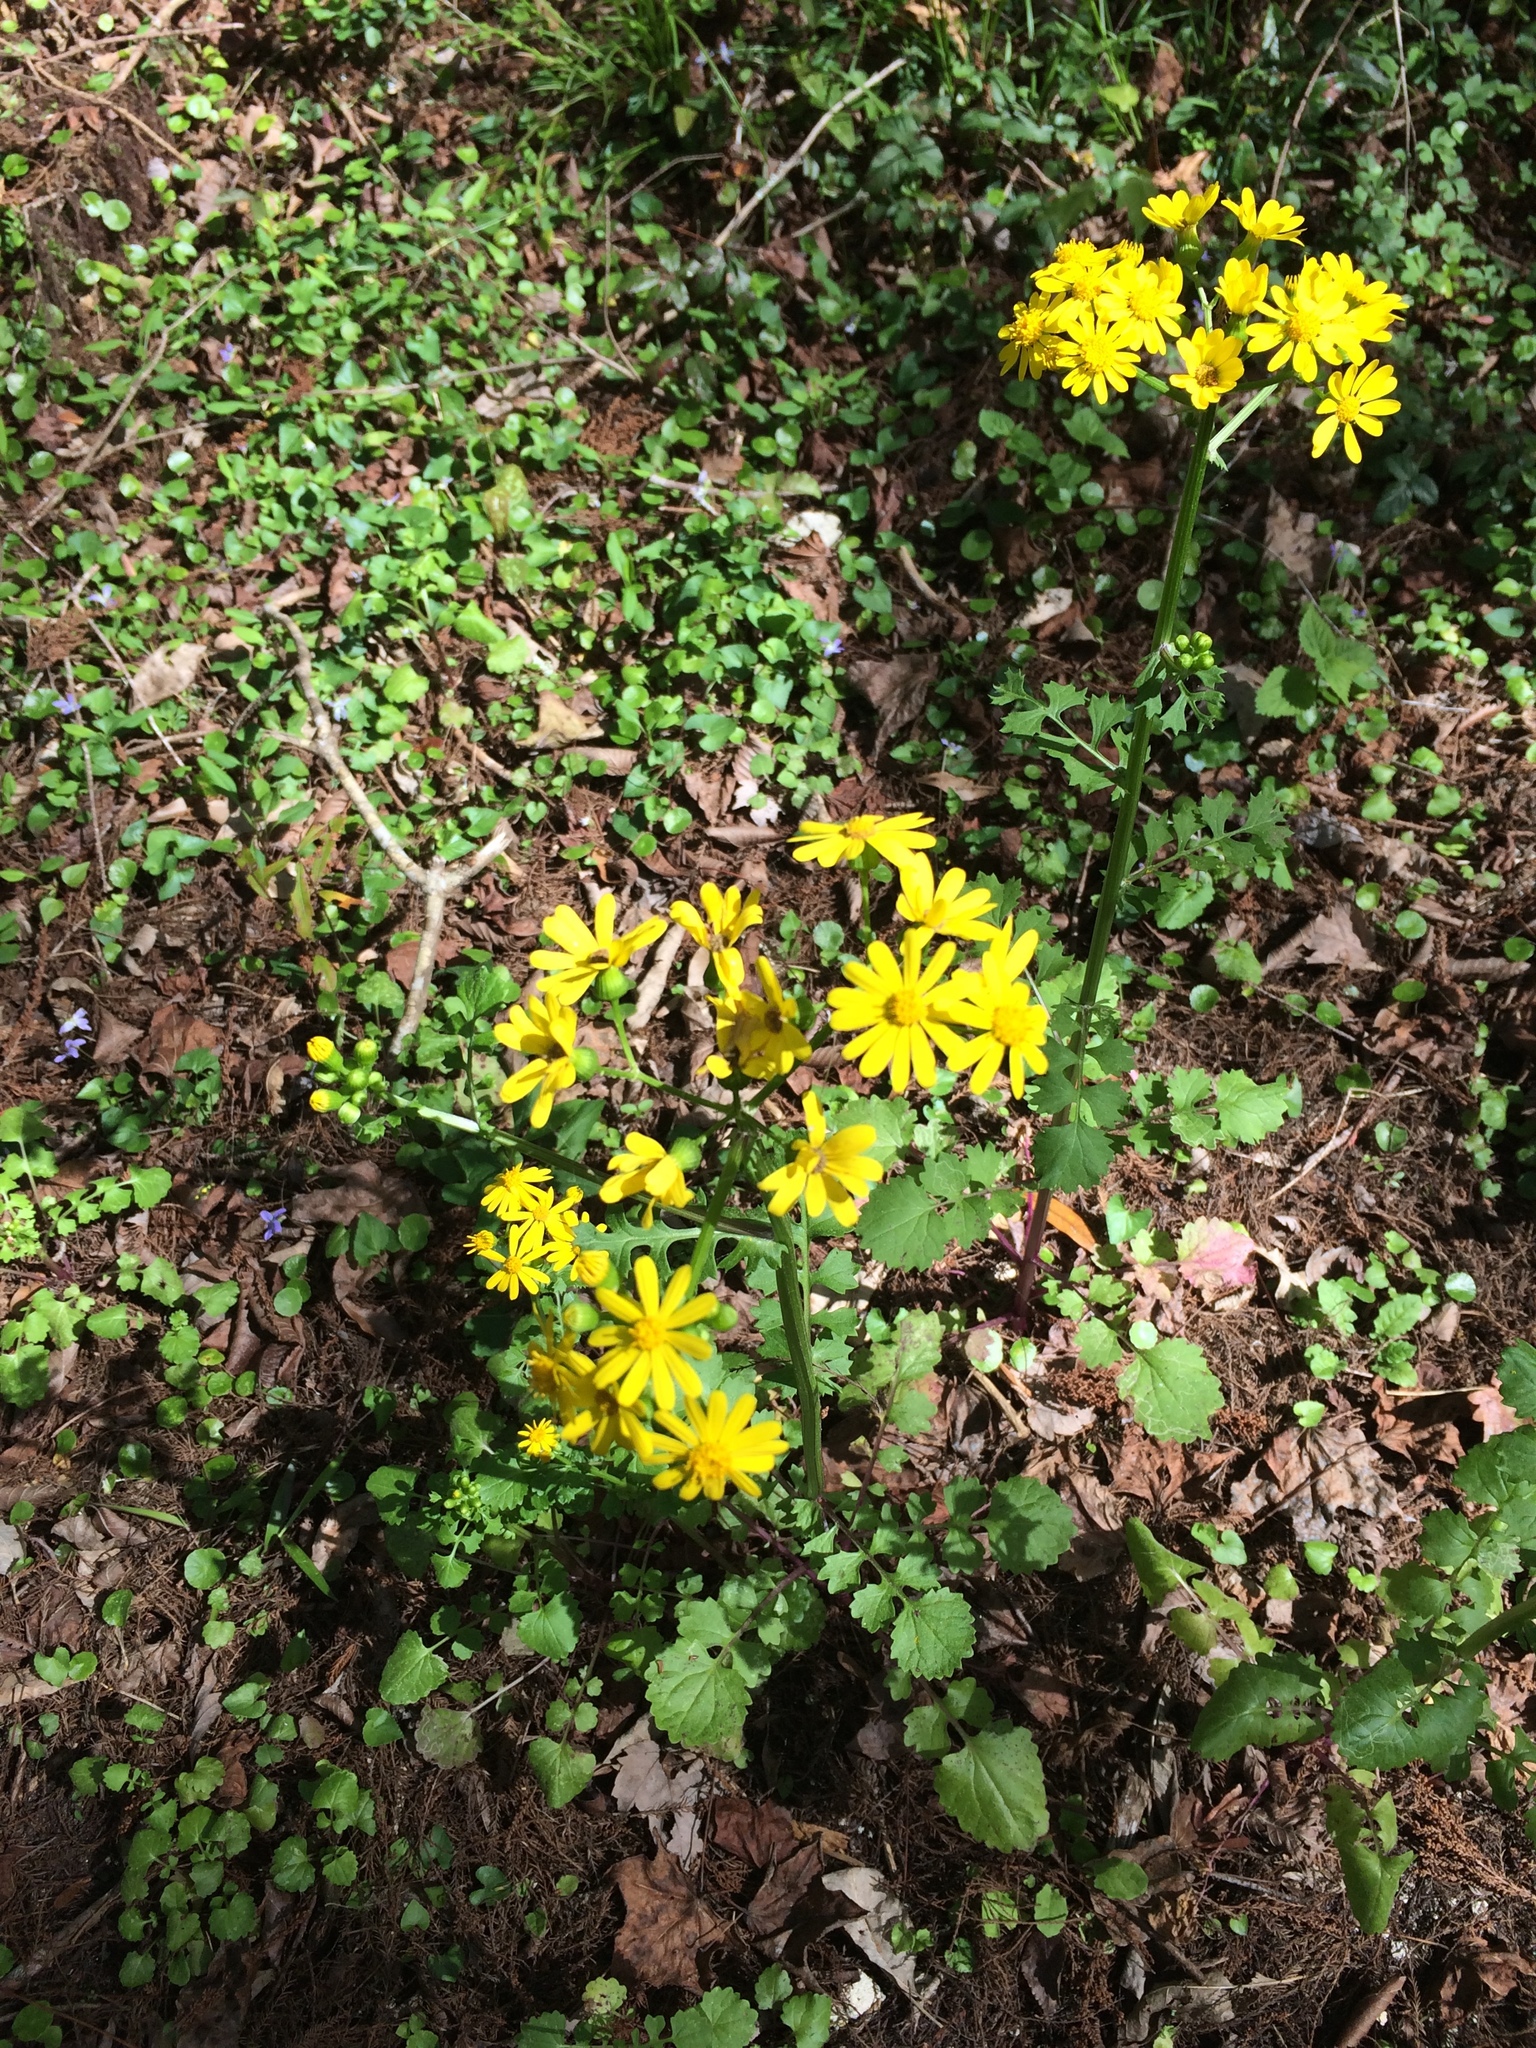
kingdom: Plantae
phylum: Tracheophyta
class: Magnoliopsida
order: Asterales
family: Asteraceae
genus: Packera
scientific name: Packera glabella
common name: Butterweed
